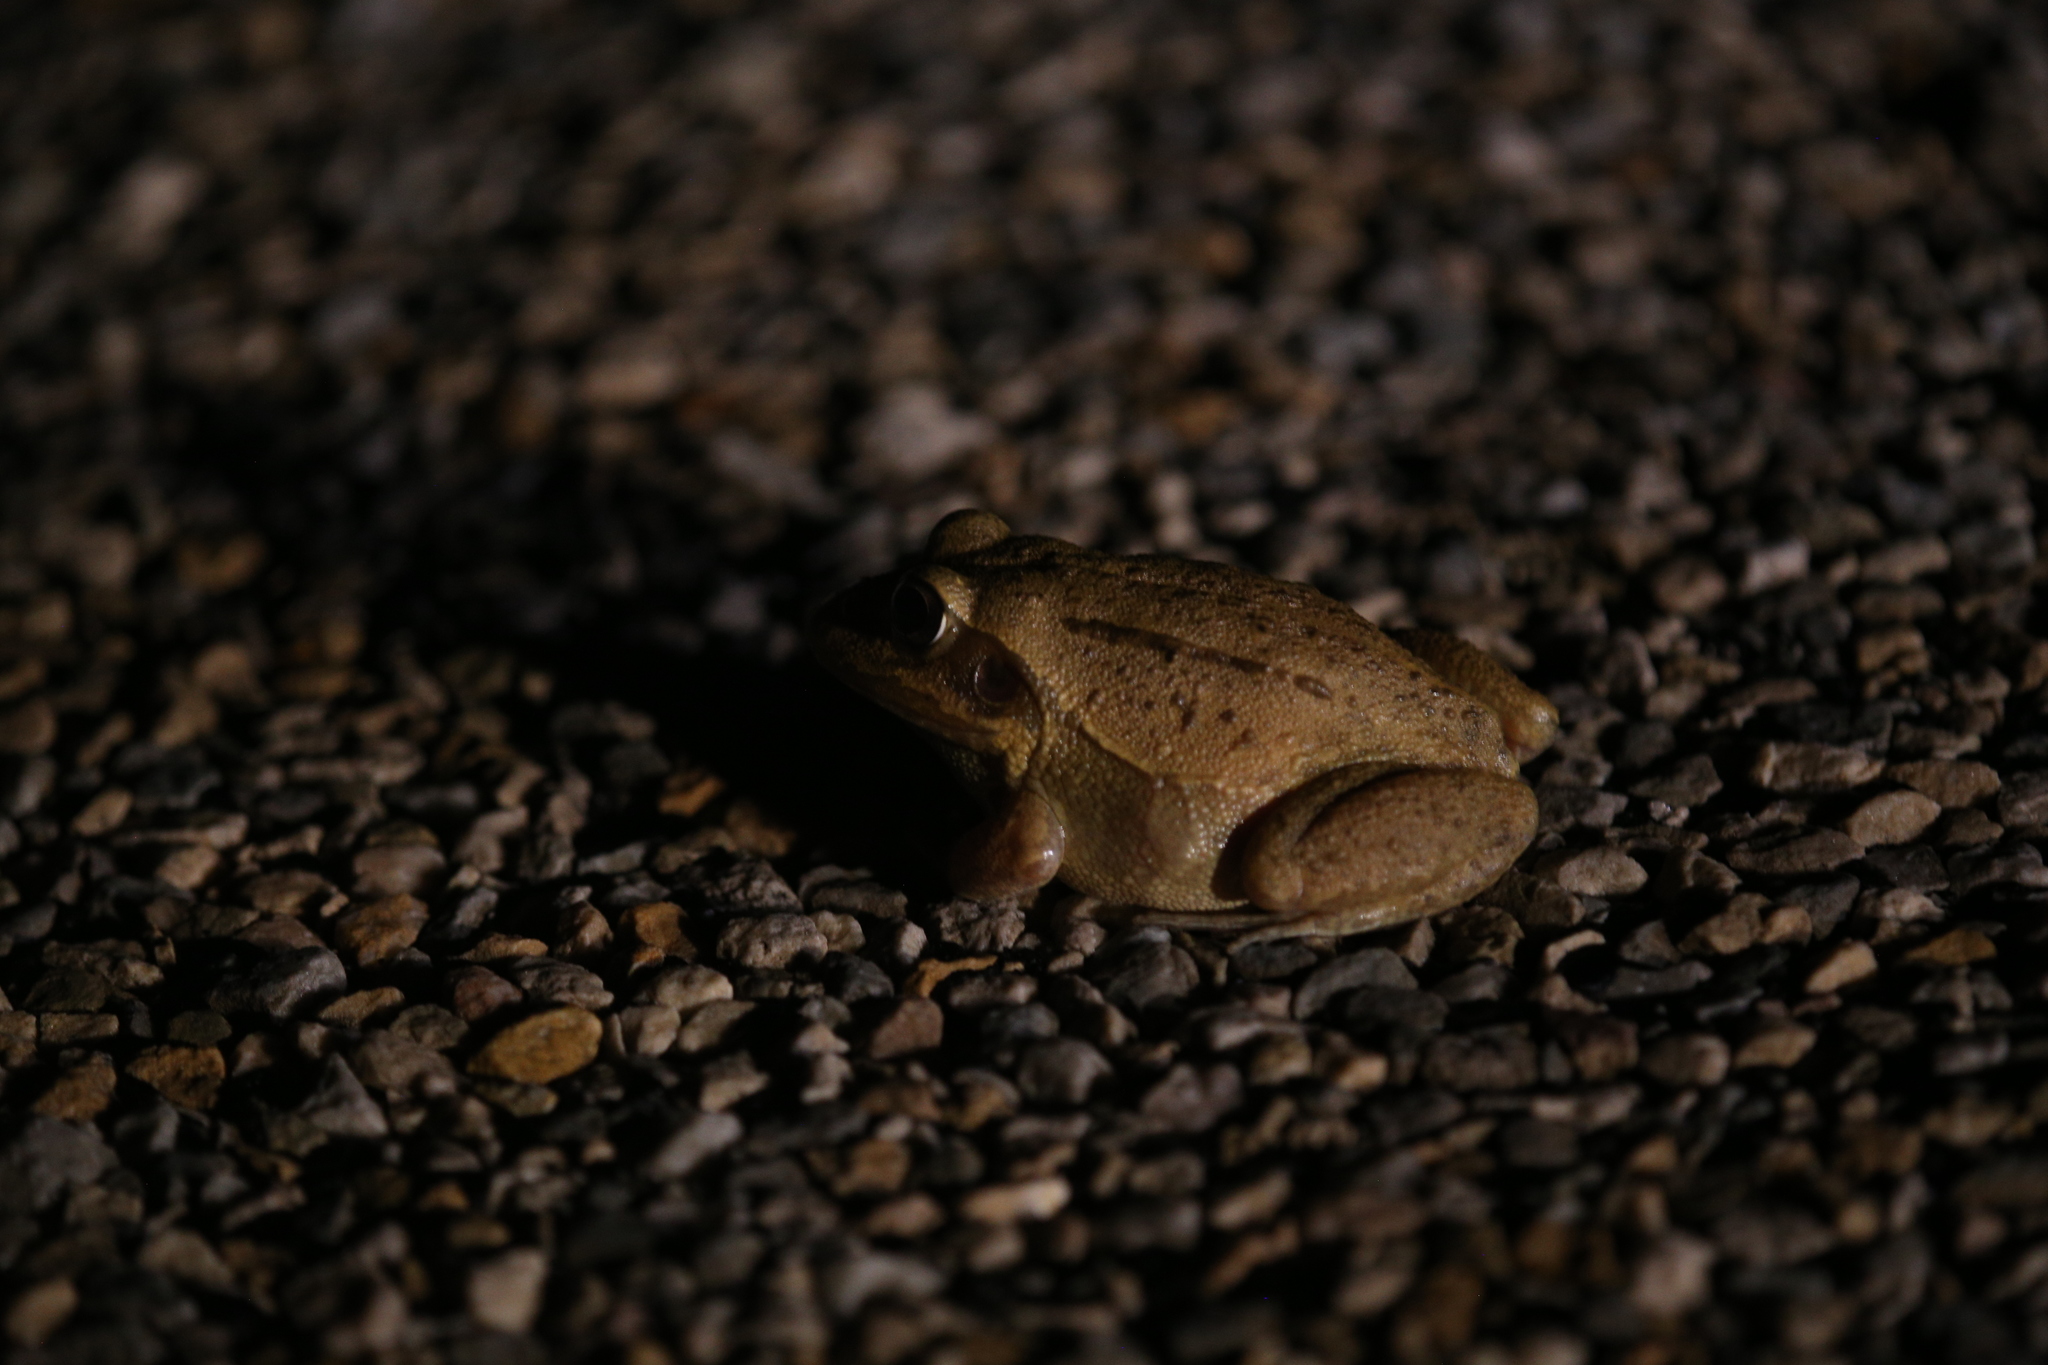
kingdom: Animalia
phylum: Chordata
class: Amphibia
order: Anura
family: Pelodryadidae
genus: Ranoidea
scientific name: Ranoidea australis
